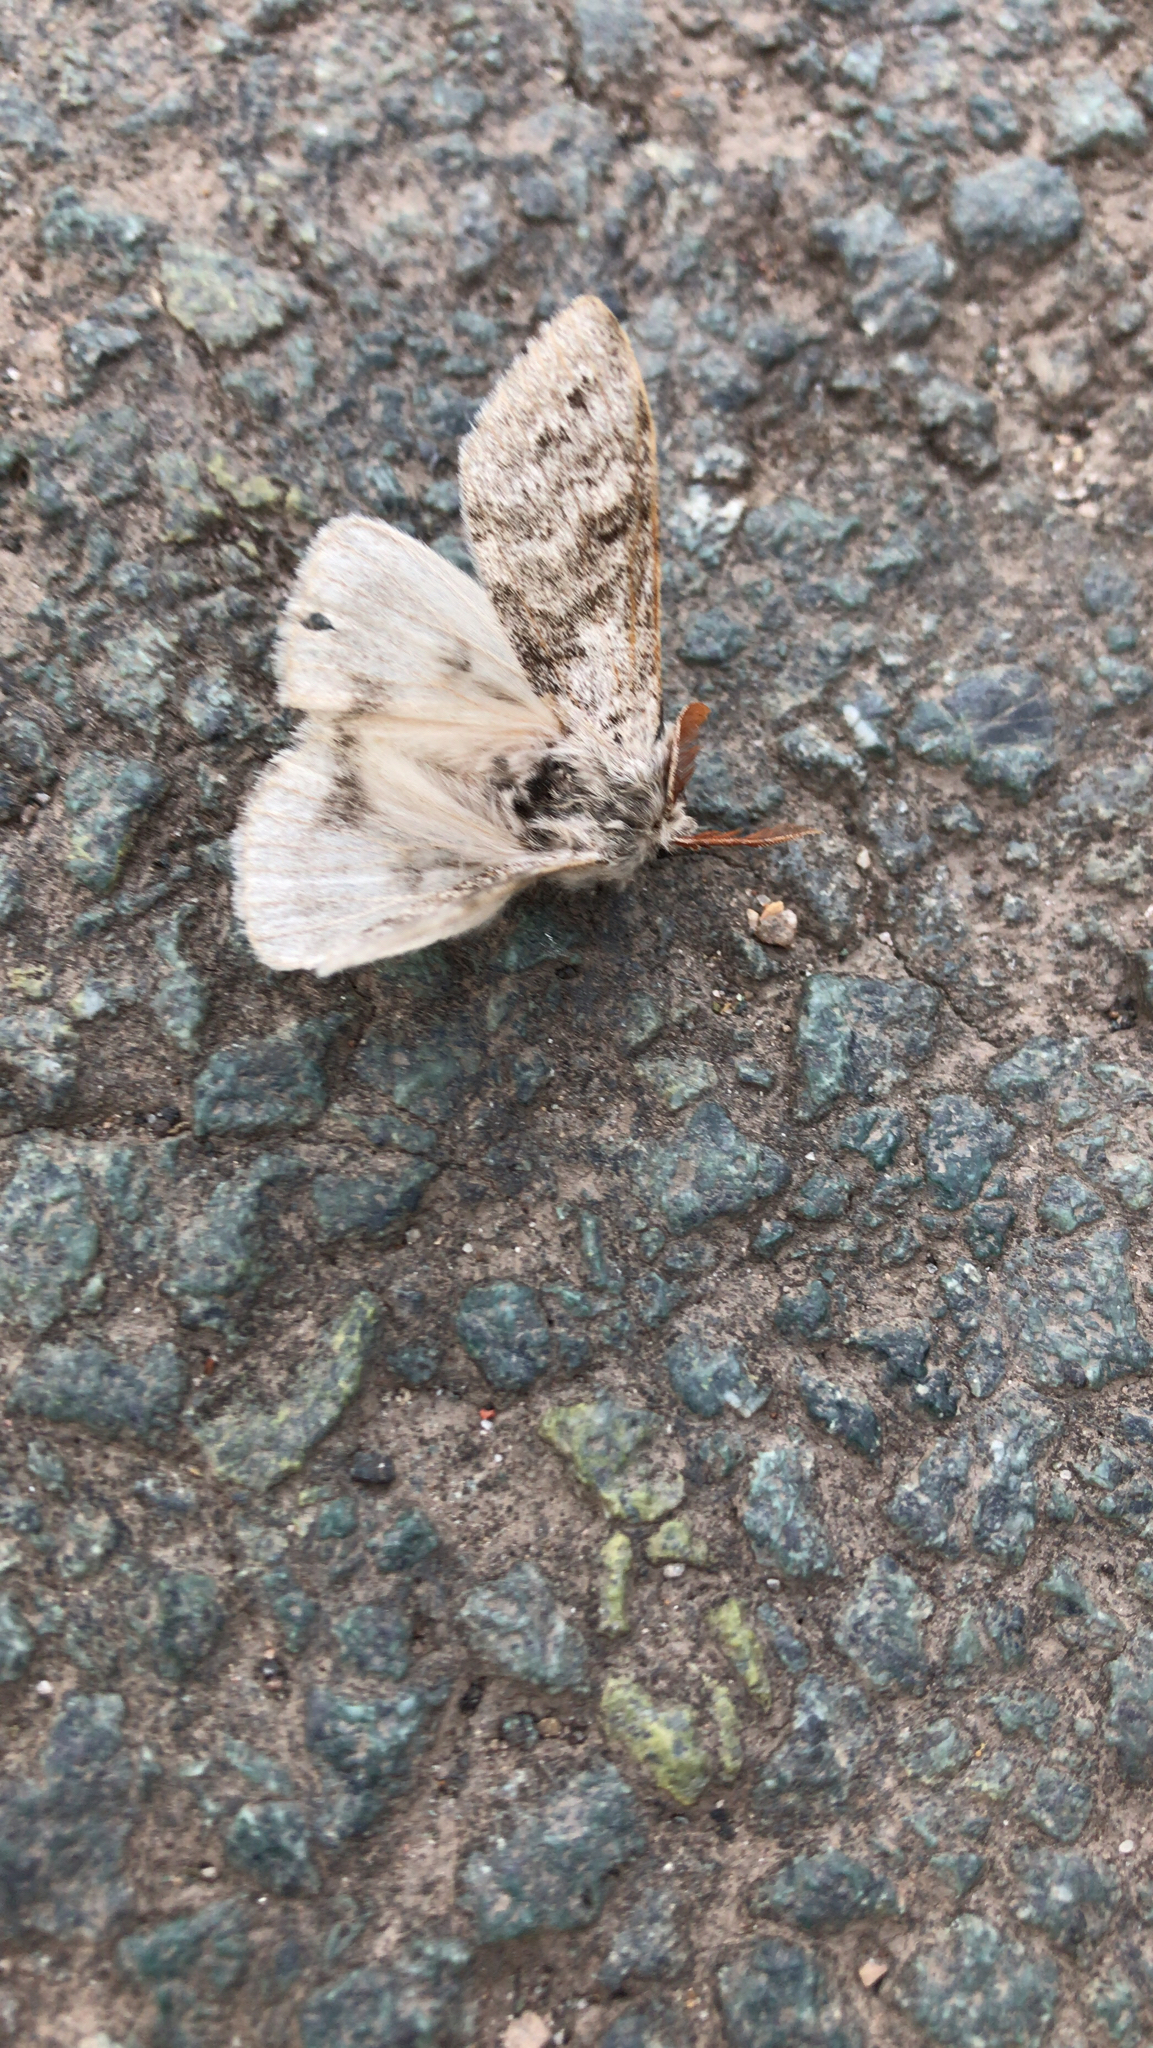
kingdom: Animalia
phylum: Arthropoda
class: Insecta
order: Lepidoptera
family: Erebidae
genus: Calliteara
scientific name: Calliteara pudibunda
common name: Pale tussock
